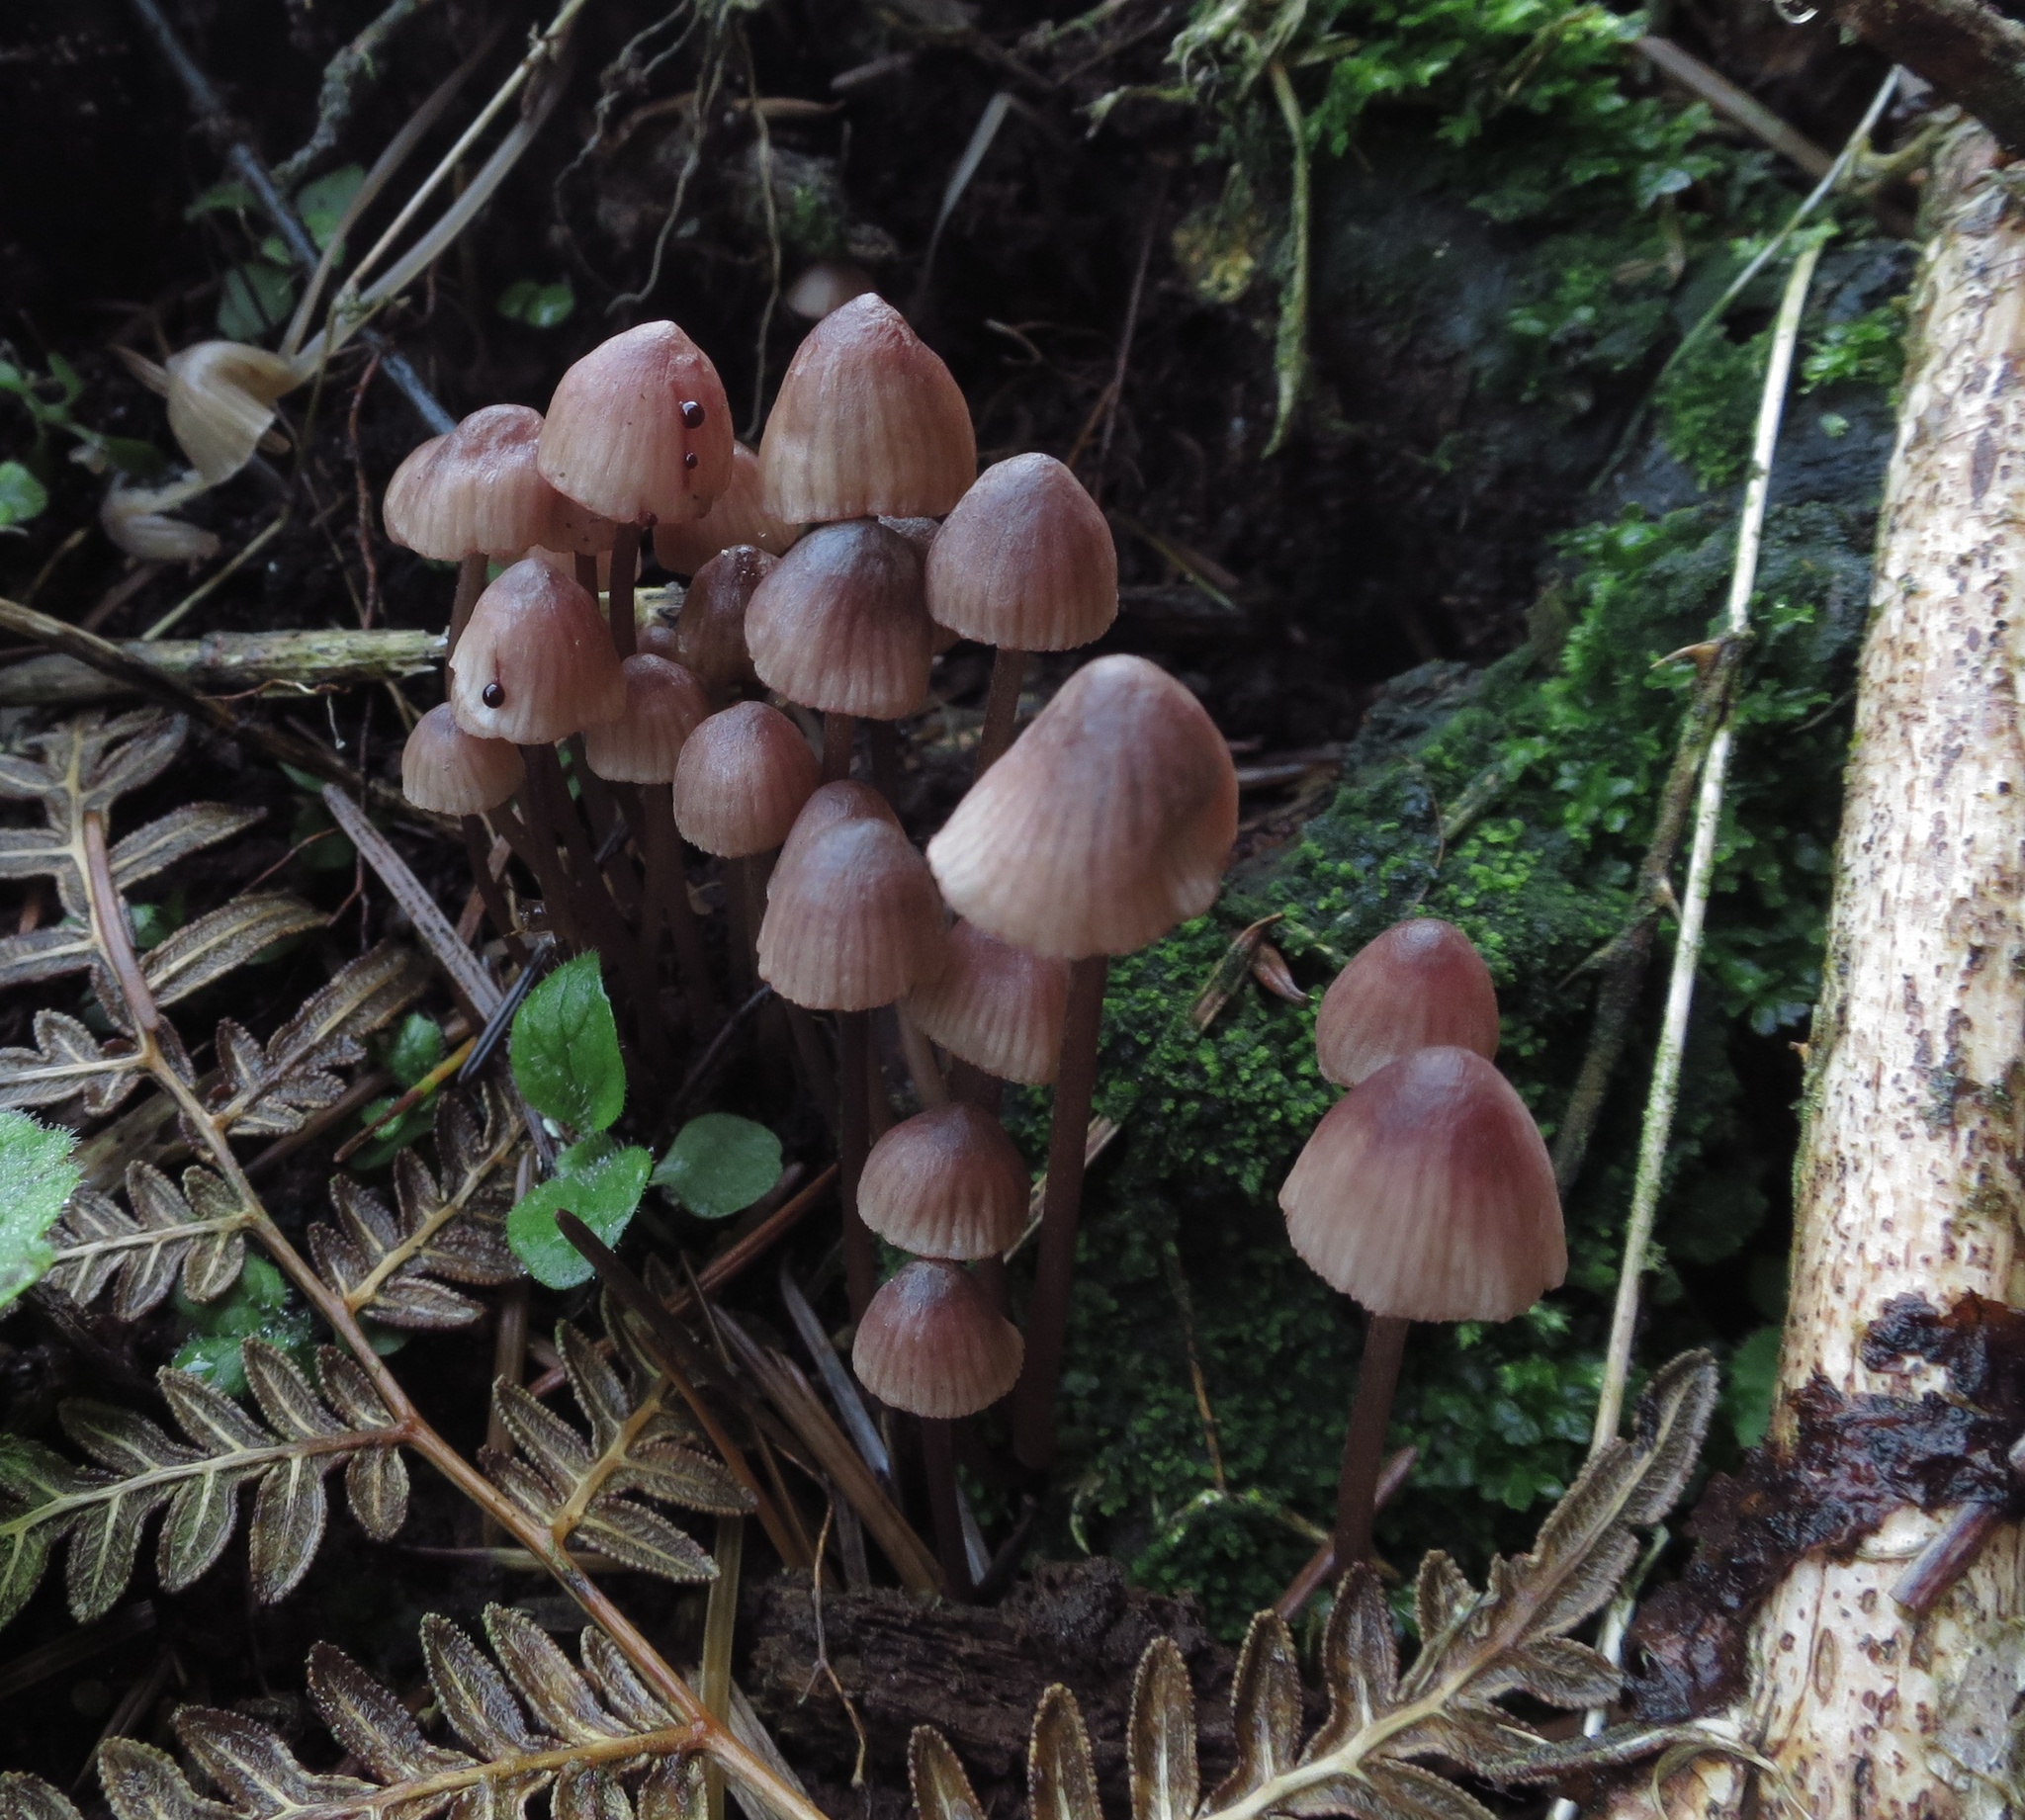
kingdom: Fungi
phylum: Basidiomycota
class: Agaricomycetes
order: Agaricales
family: Mycenaceae
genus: Mycena
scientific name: Mycena mariae
